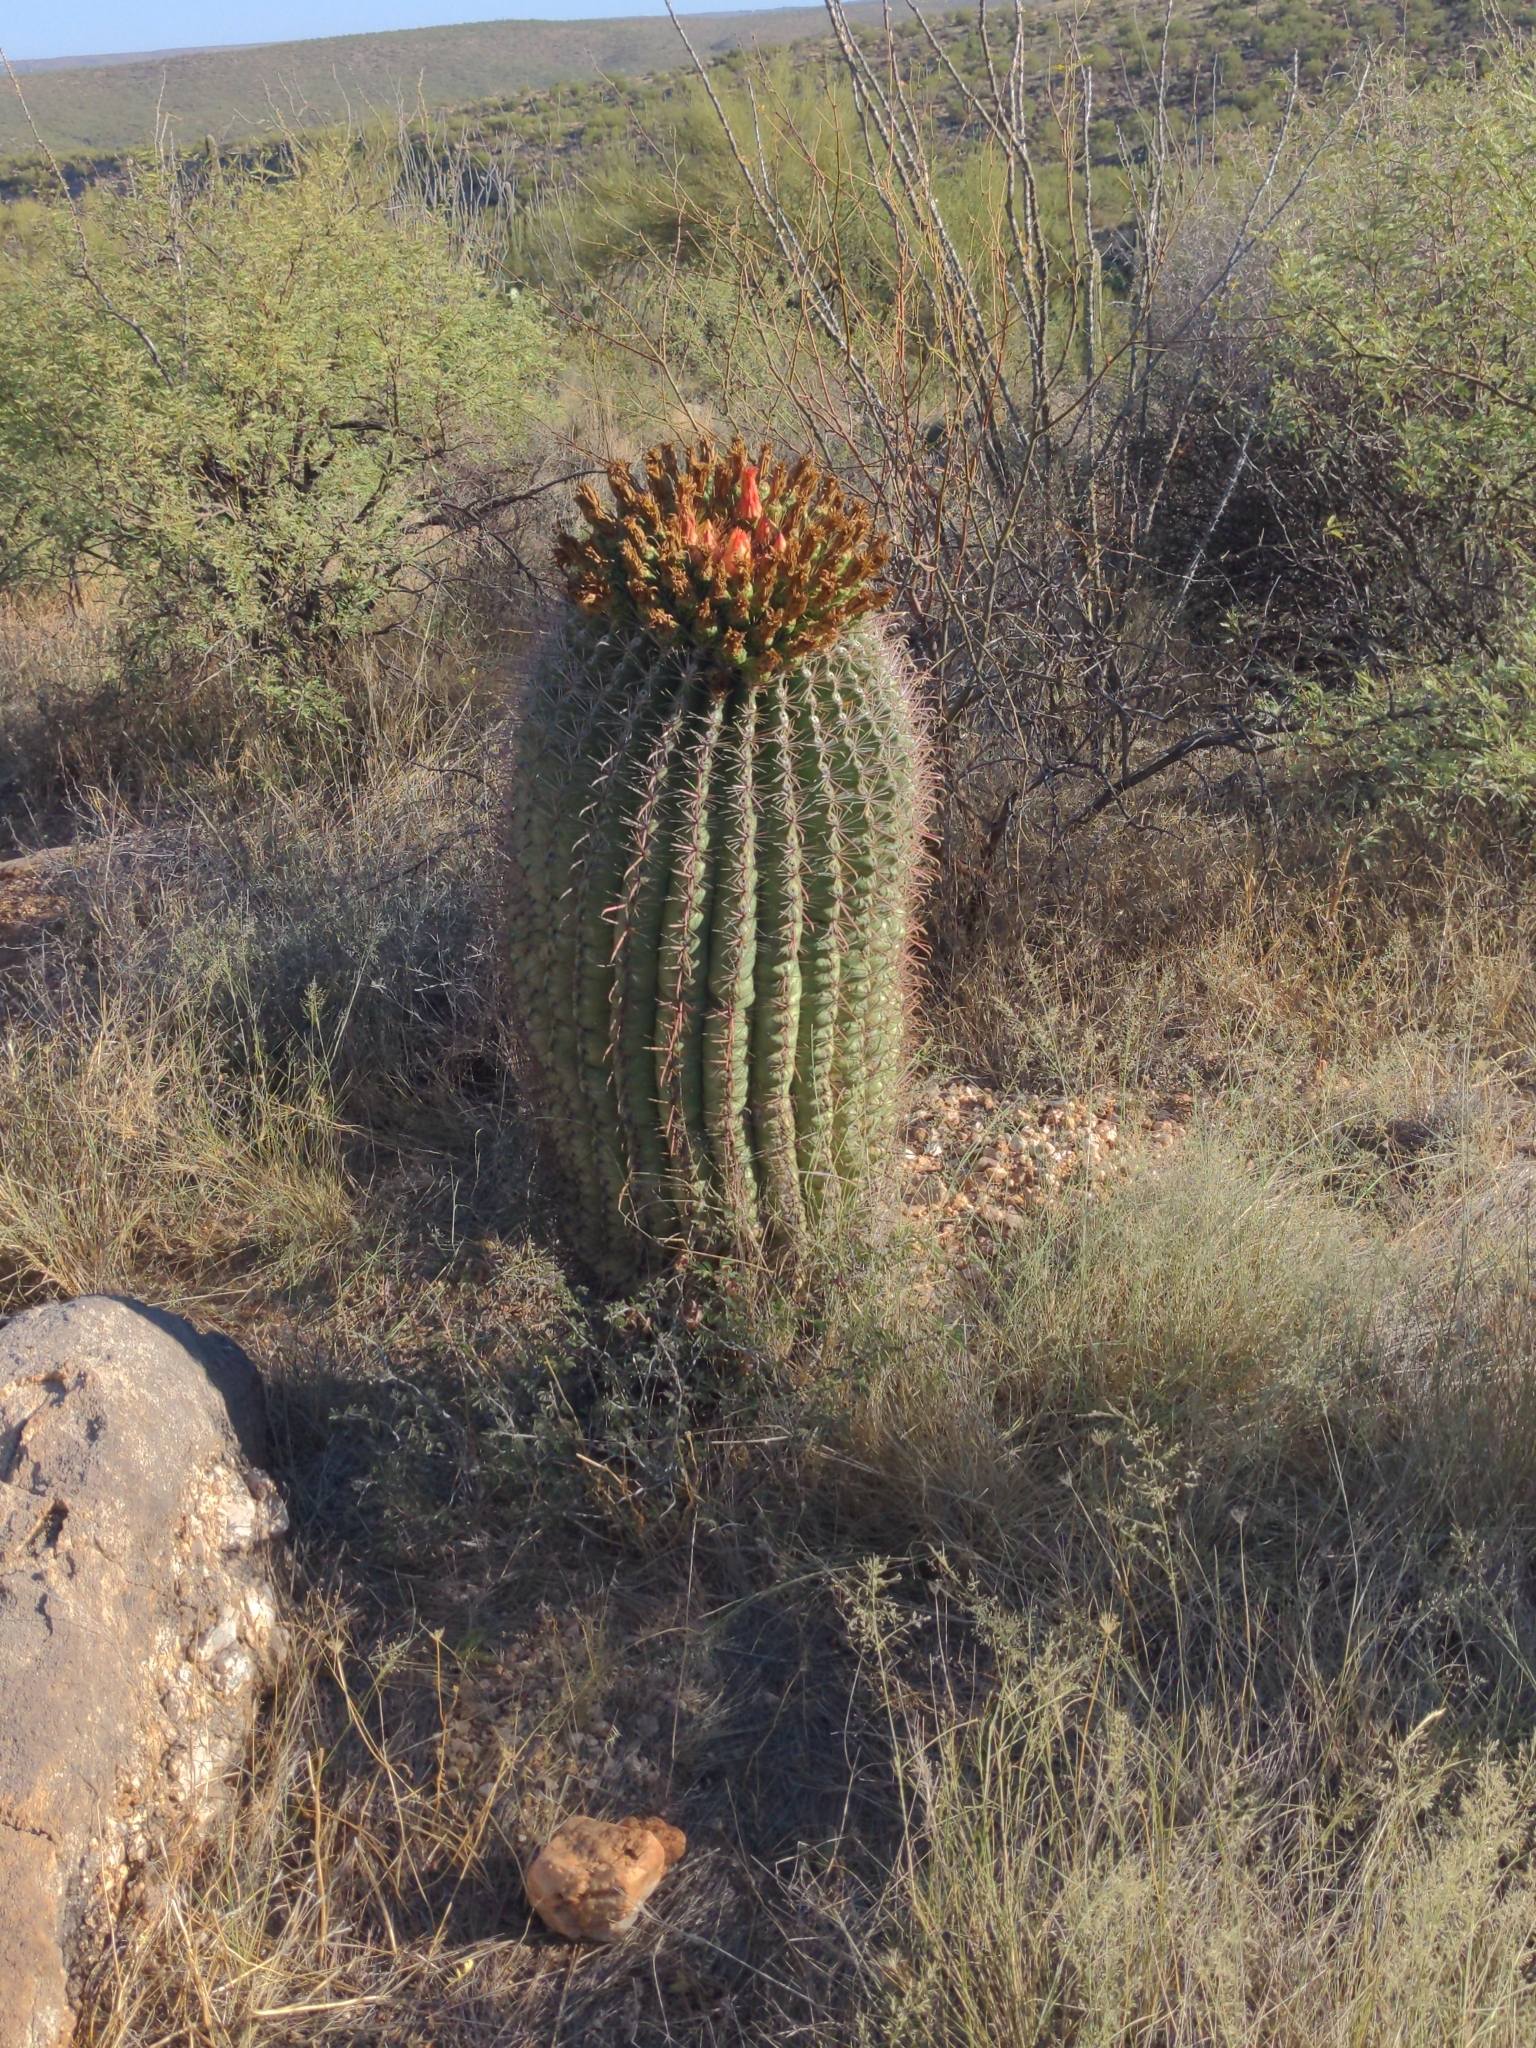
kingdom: Plantae
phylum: Tracheophyta
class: Magnoliopsida
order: Caryophyllales
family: Cactaceae
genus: Ferocactus
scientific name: Ferocactus wislizeni
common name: Candy barrel cactus
